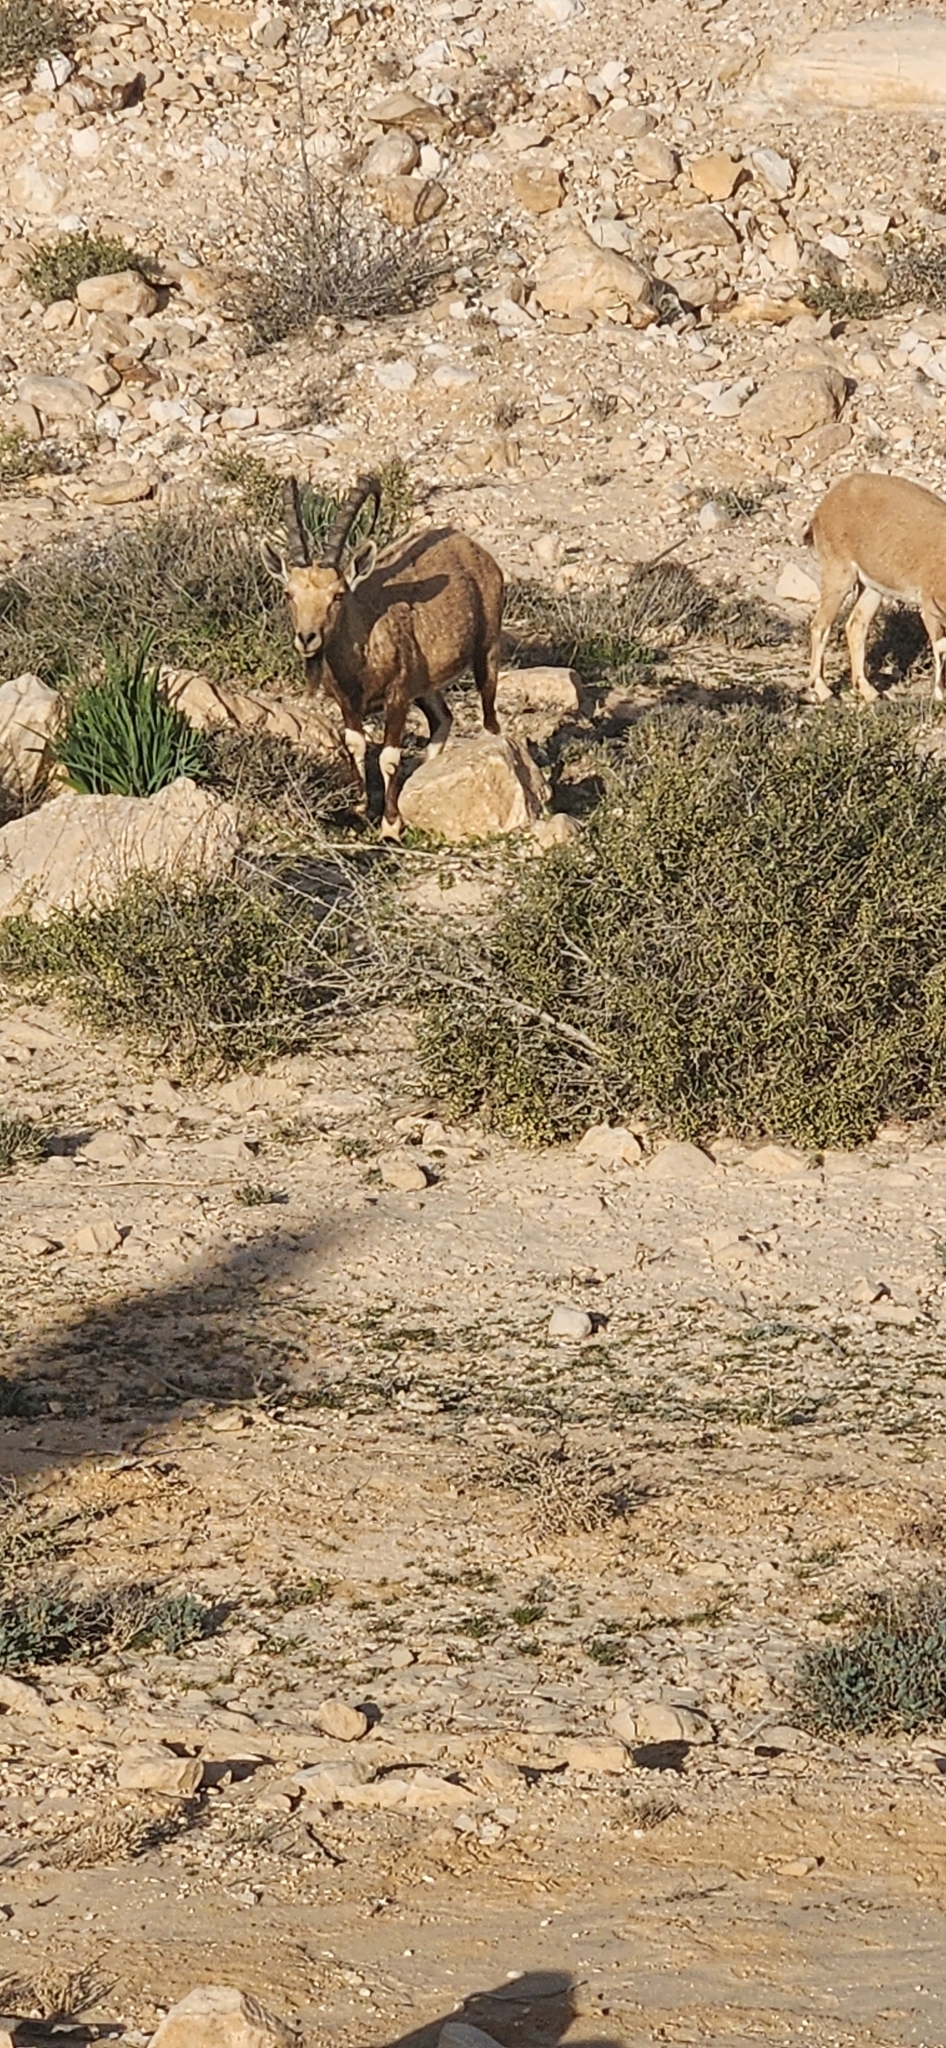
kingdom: Animalia
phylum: Chordata
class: Mammalia
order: Artiodactyla
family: Bovidae
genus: Capra
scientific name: Capra nubiana
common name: Nubian ibex
